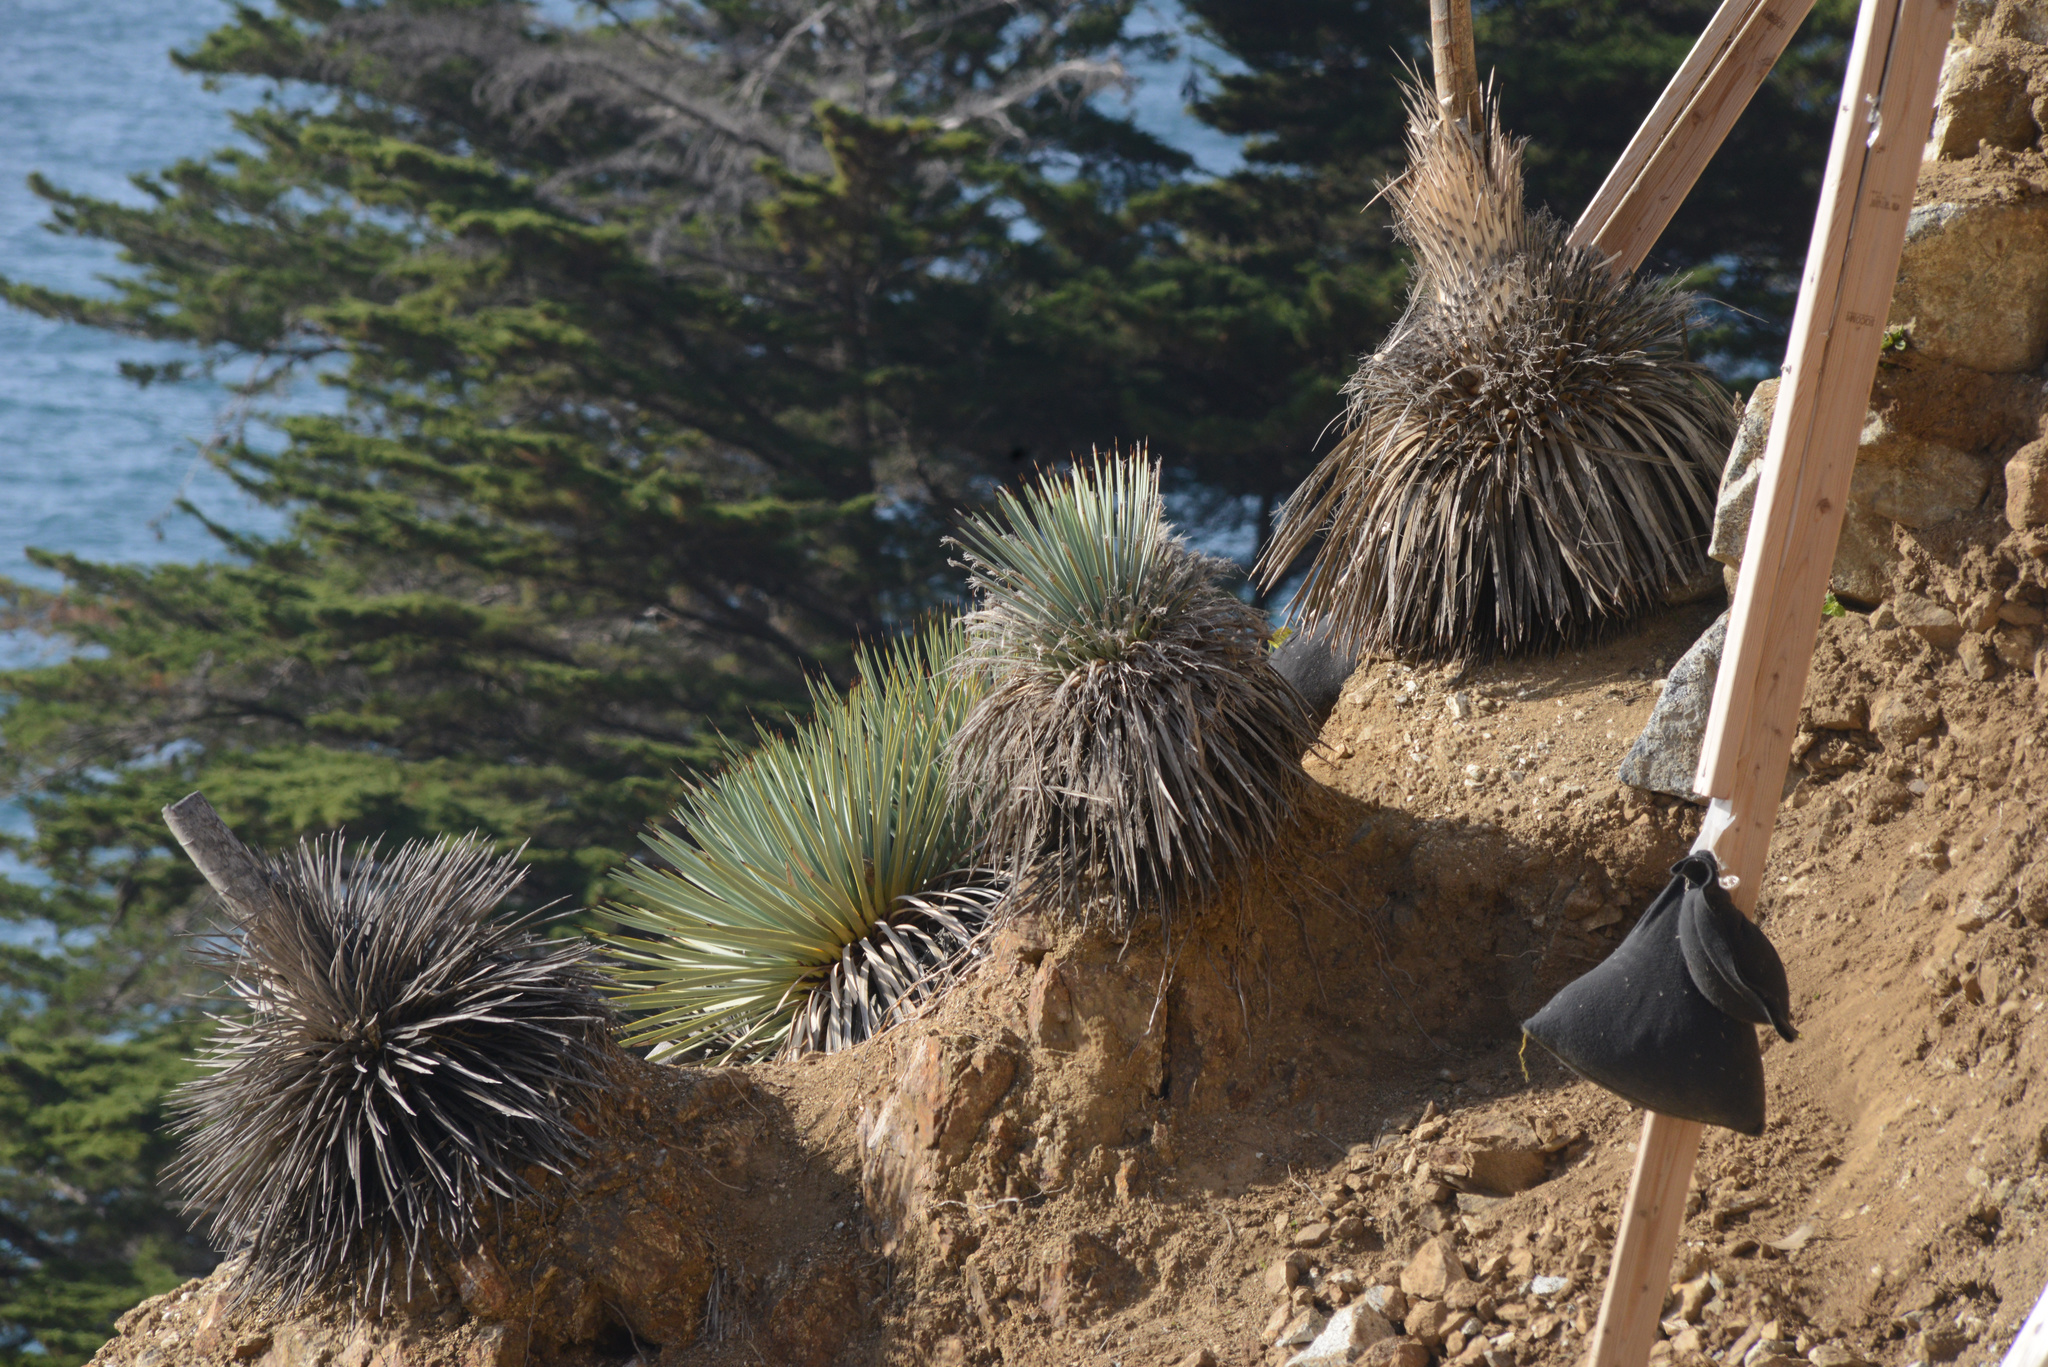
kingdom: Plantae
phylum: Tracheophyta
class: Liliopsida
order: Asparagales
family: Asparagaceae
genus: Hesperoyucca
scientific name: Hesperoyucca whipplei
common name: Our lord's-candle
